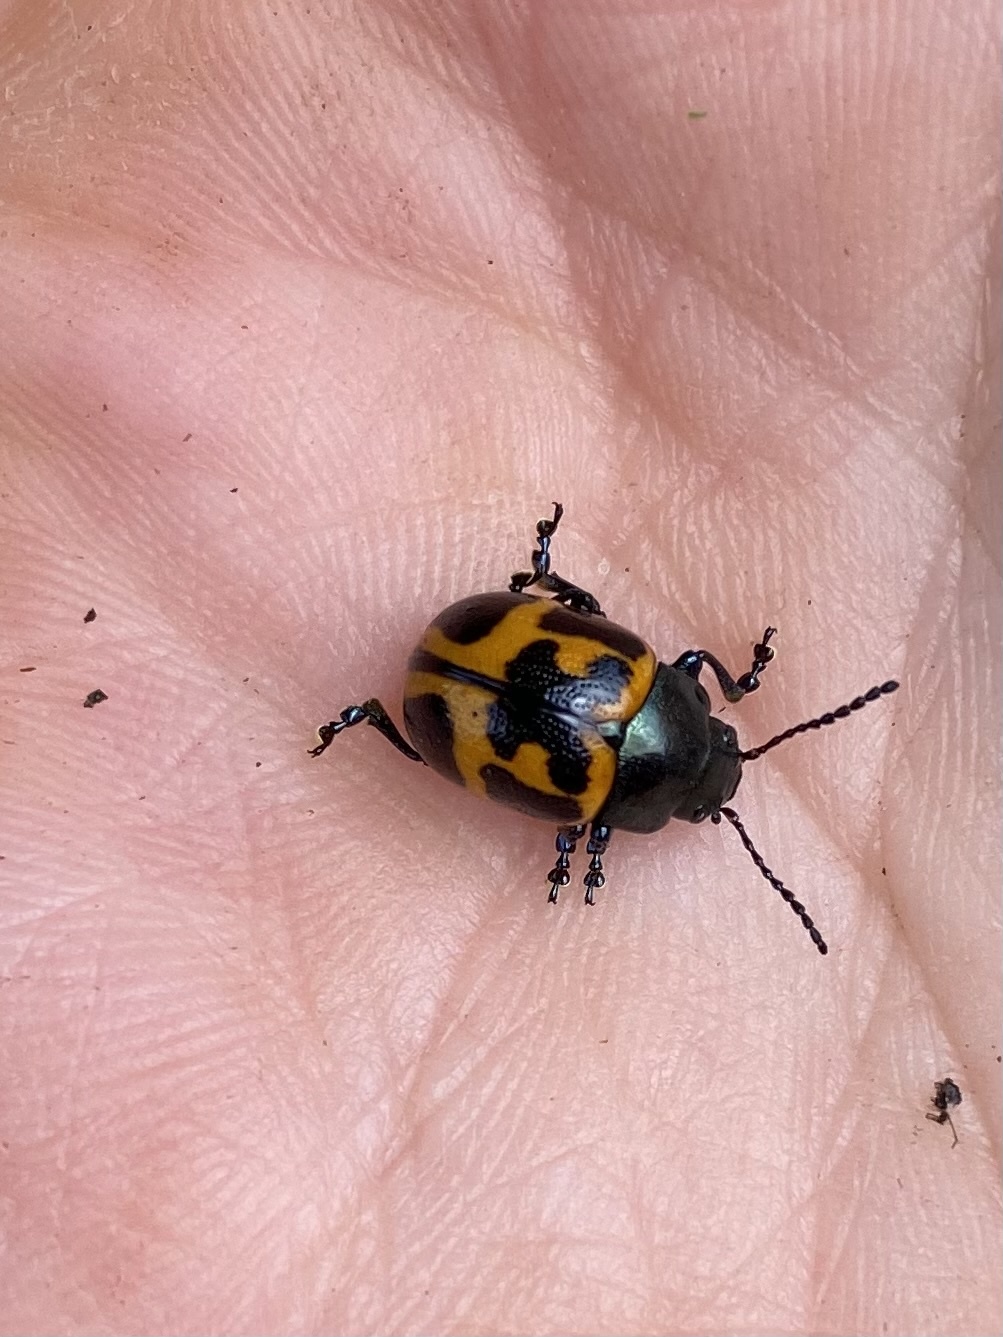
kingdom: Animalia
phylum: Arthropoda
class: Insecta
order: Coleoptera
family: Chrysomelidae
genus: Labidomera
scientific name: Labidomera clivicollis
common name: Swamp milkweed leaf beetle
